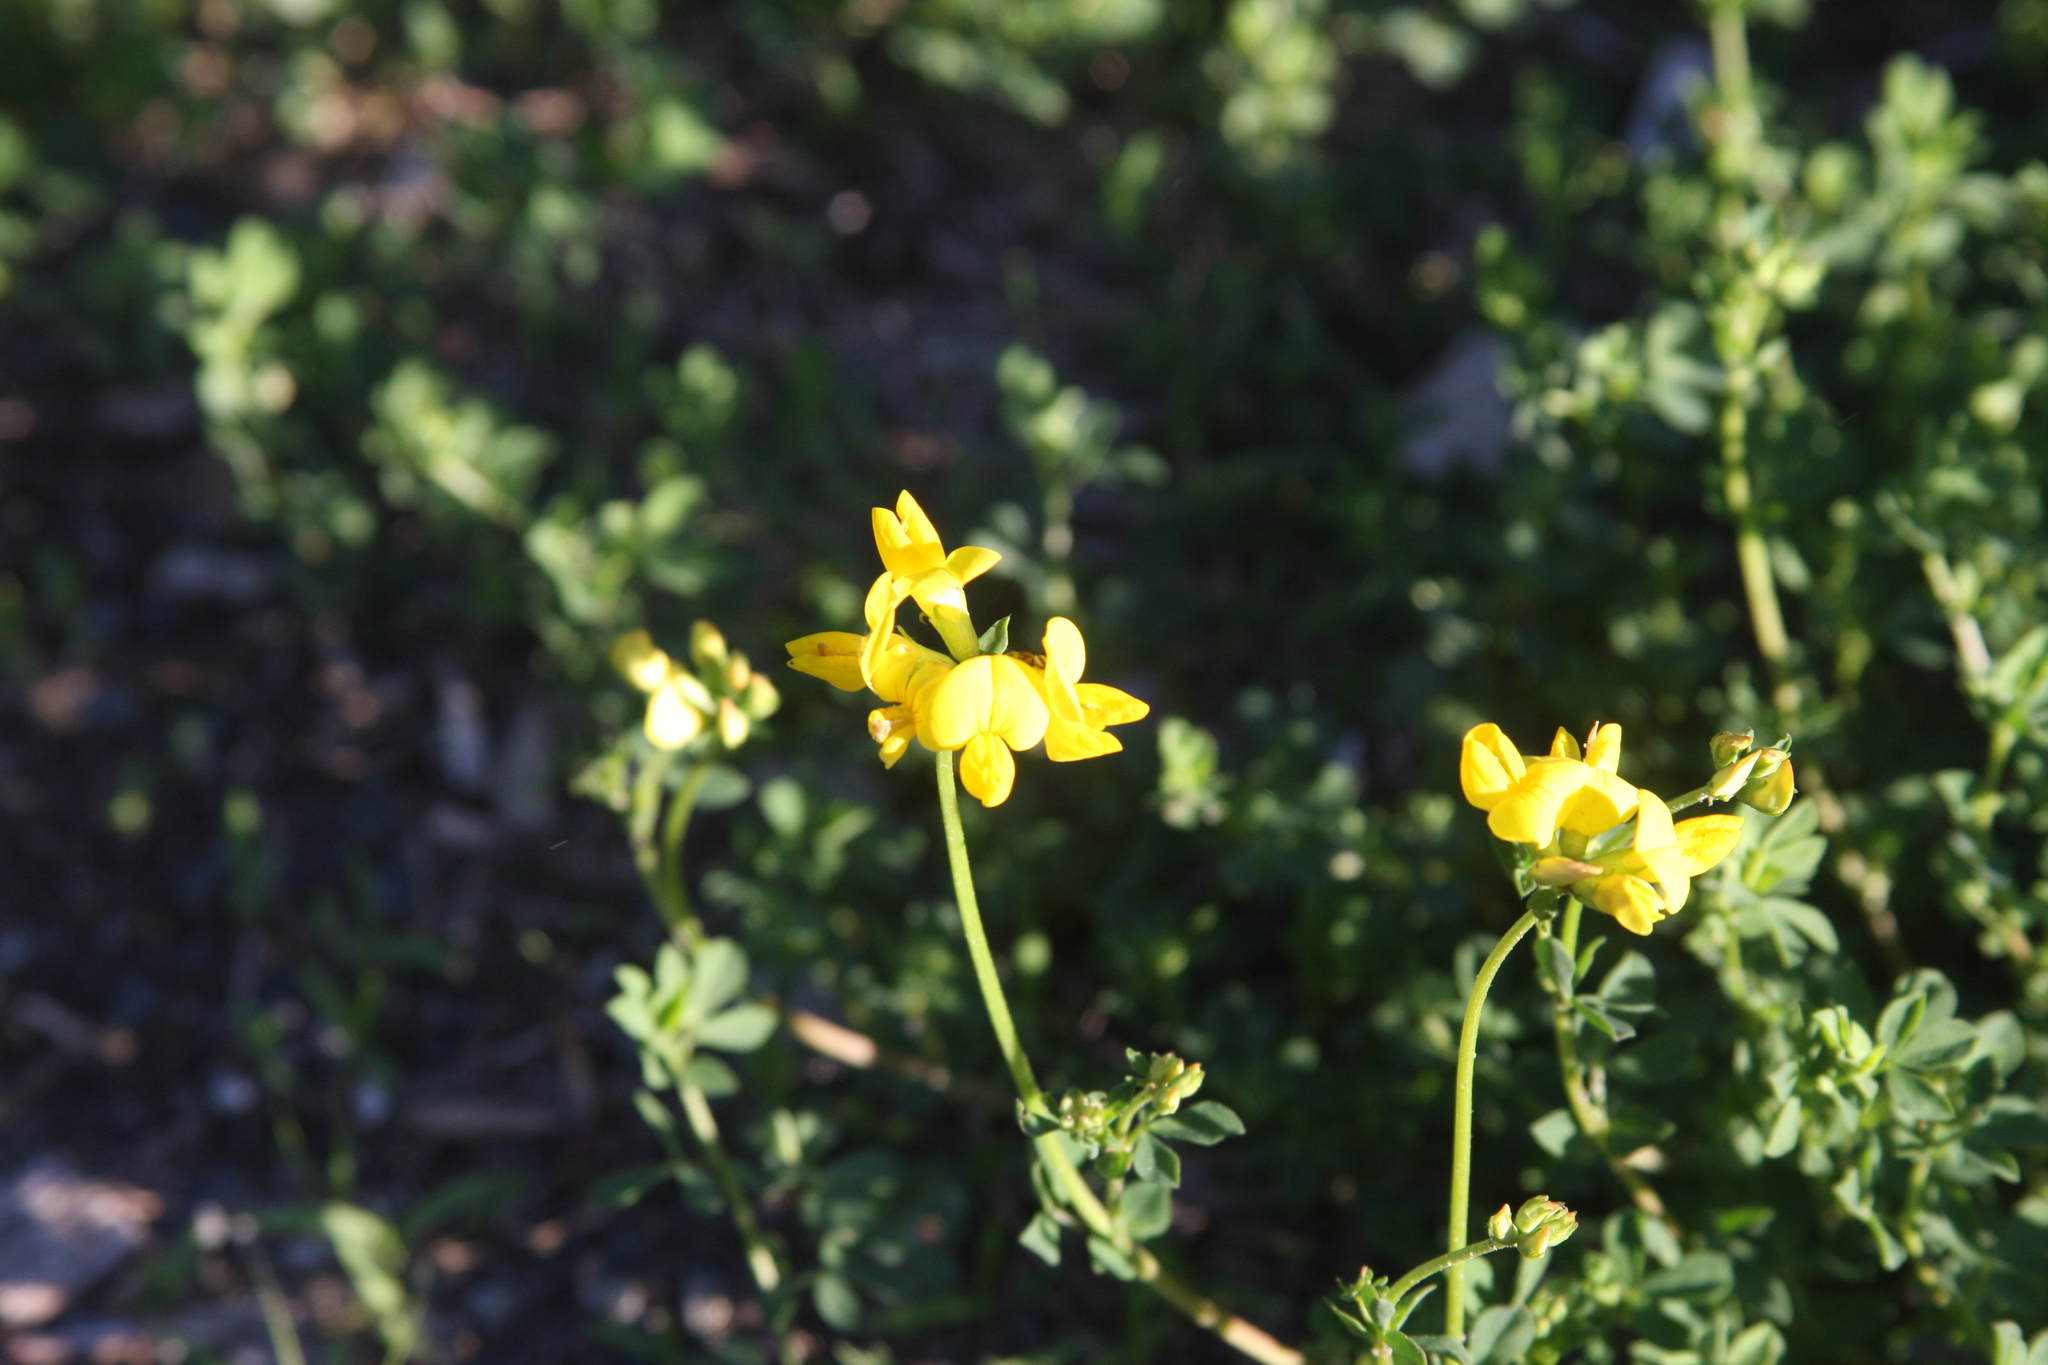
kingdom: Plantae
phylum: Tracheophyta
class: Magnoliopsida
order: Fabales
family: Fabaceae
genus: Lotus
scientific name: Lotus corniculatus
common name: Common bird's-foot-trefoil
